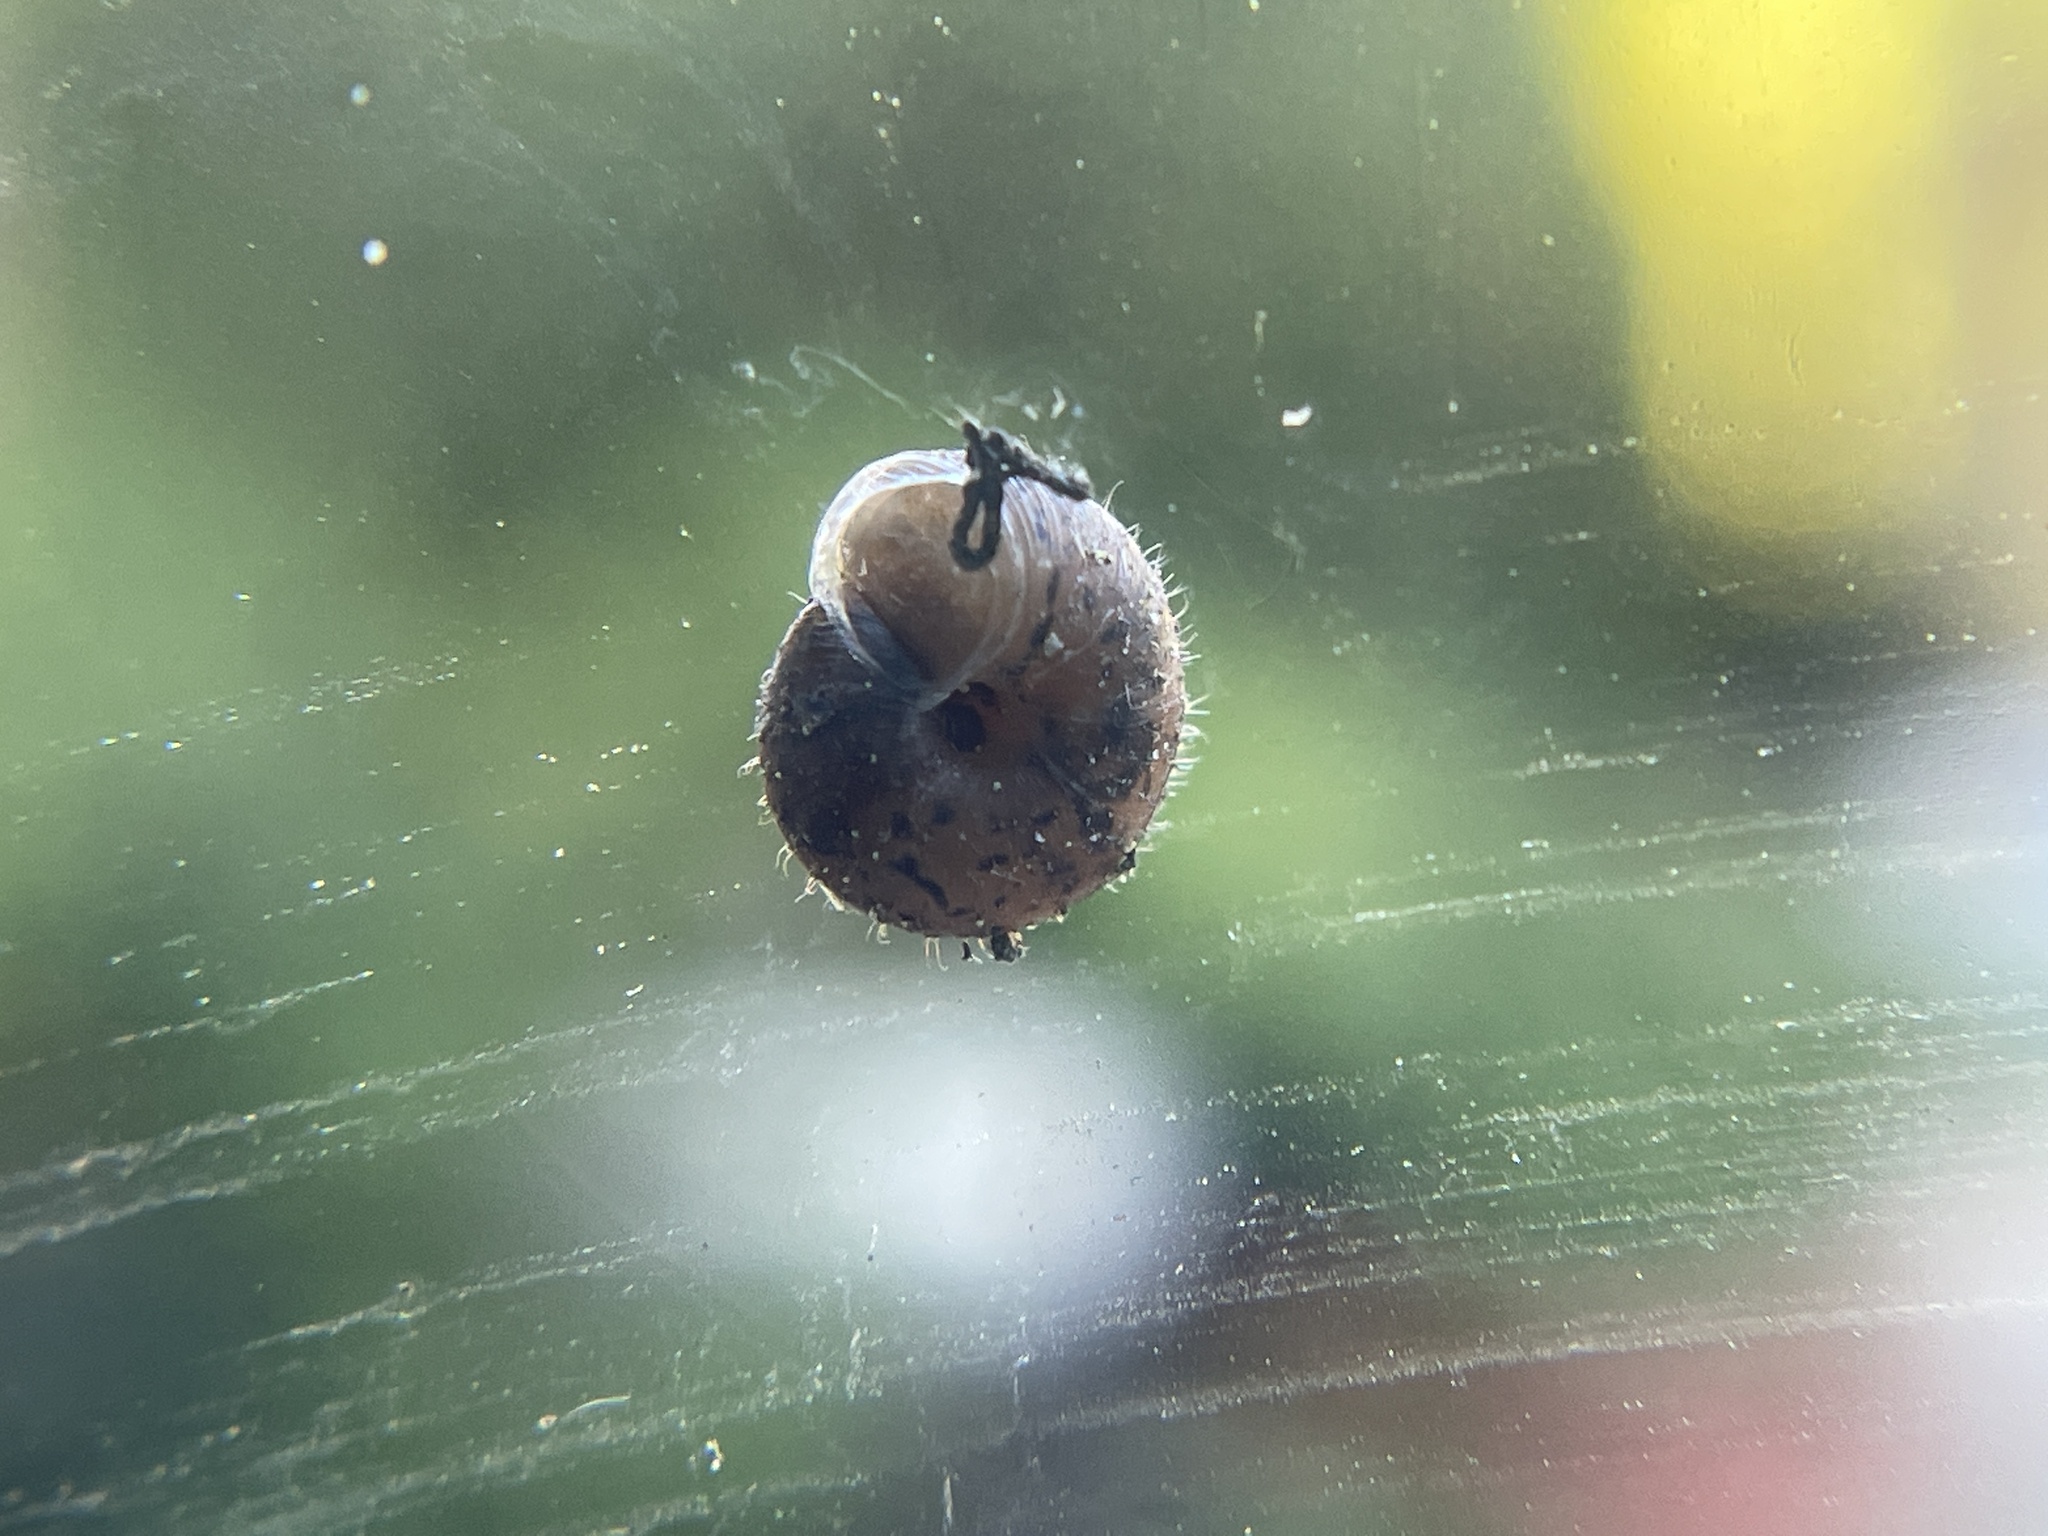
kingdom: Animalia
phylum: Mollusca
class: Gastropoda
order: Stylommatophora
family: Geomitridae
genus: Xerotricha
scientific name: Xerotricha conspurcata
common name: Snail
